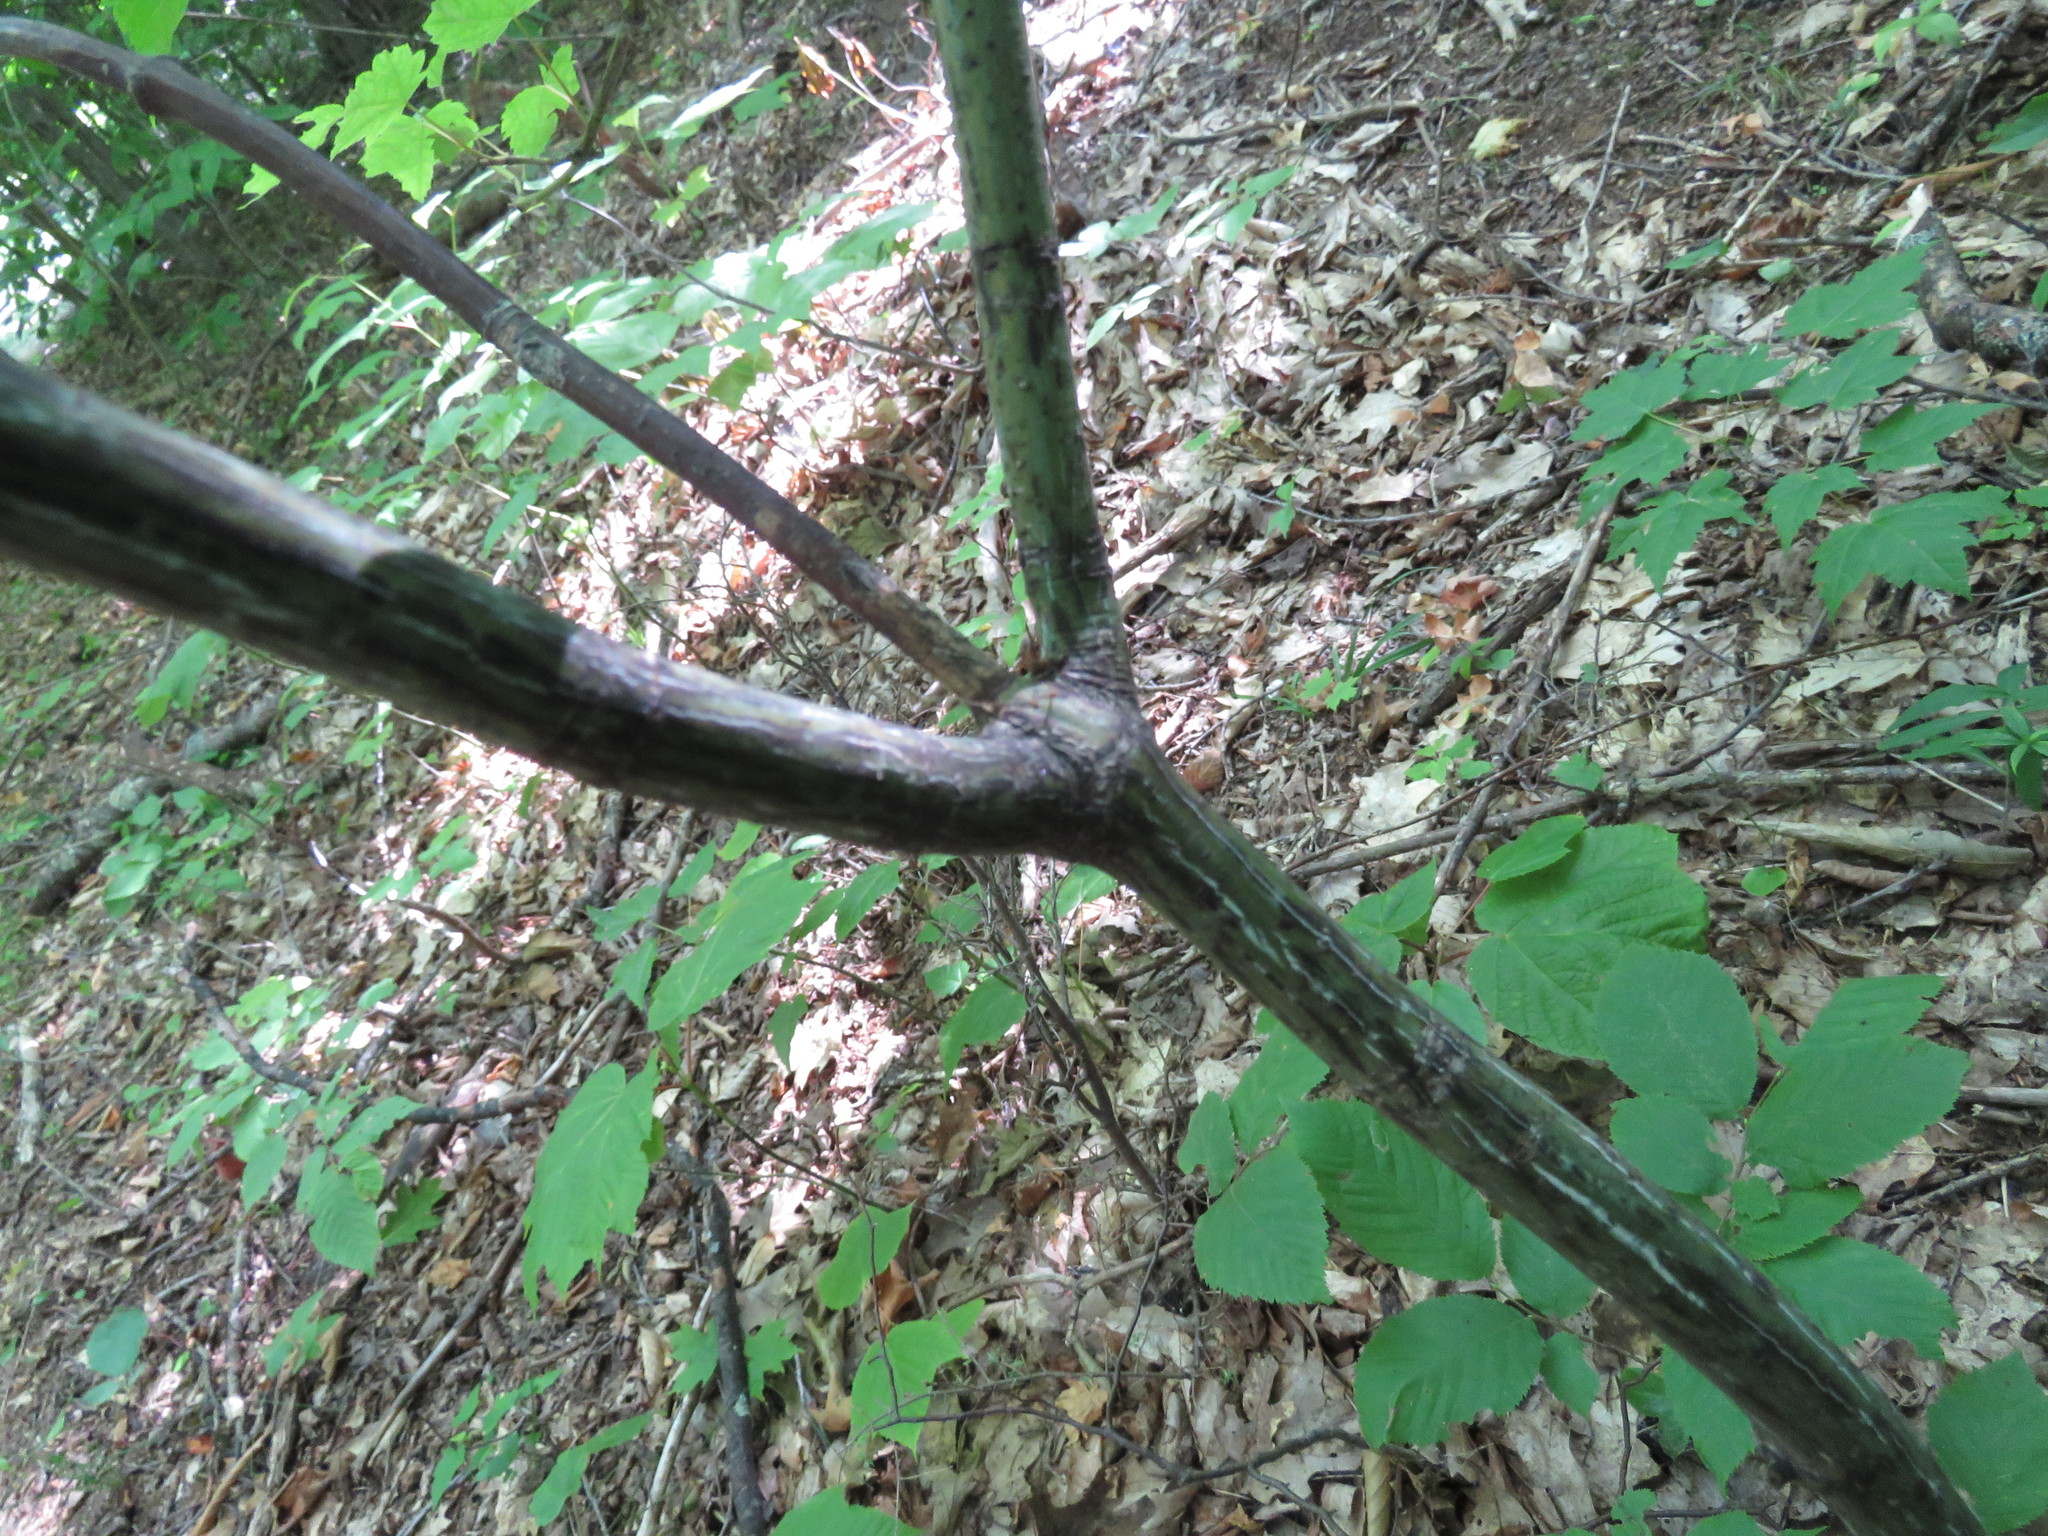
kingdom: Plantae
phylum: Tracheophyta
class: Magnoliopsida
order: Sapindales
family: Sapindaceae
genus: Acer
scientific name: Acer pensylvanicum
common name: Moosewood
